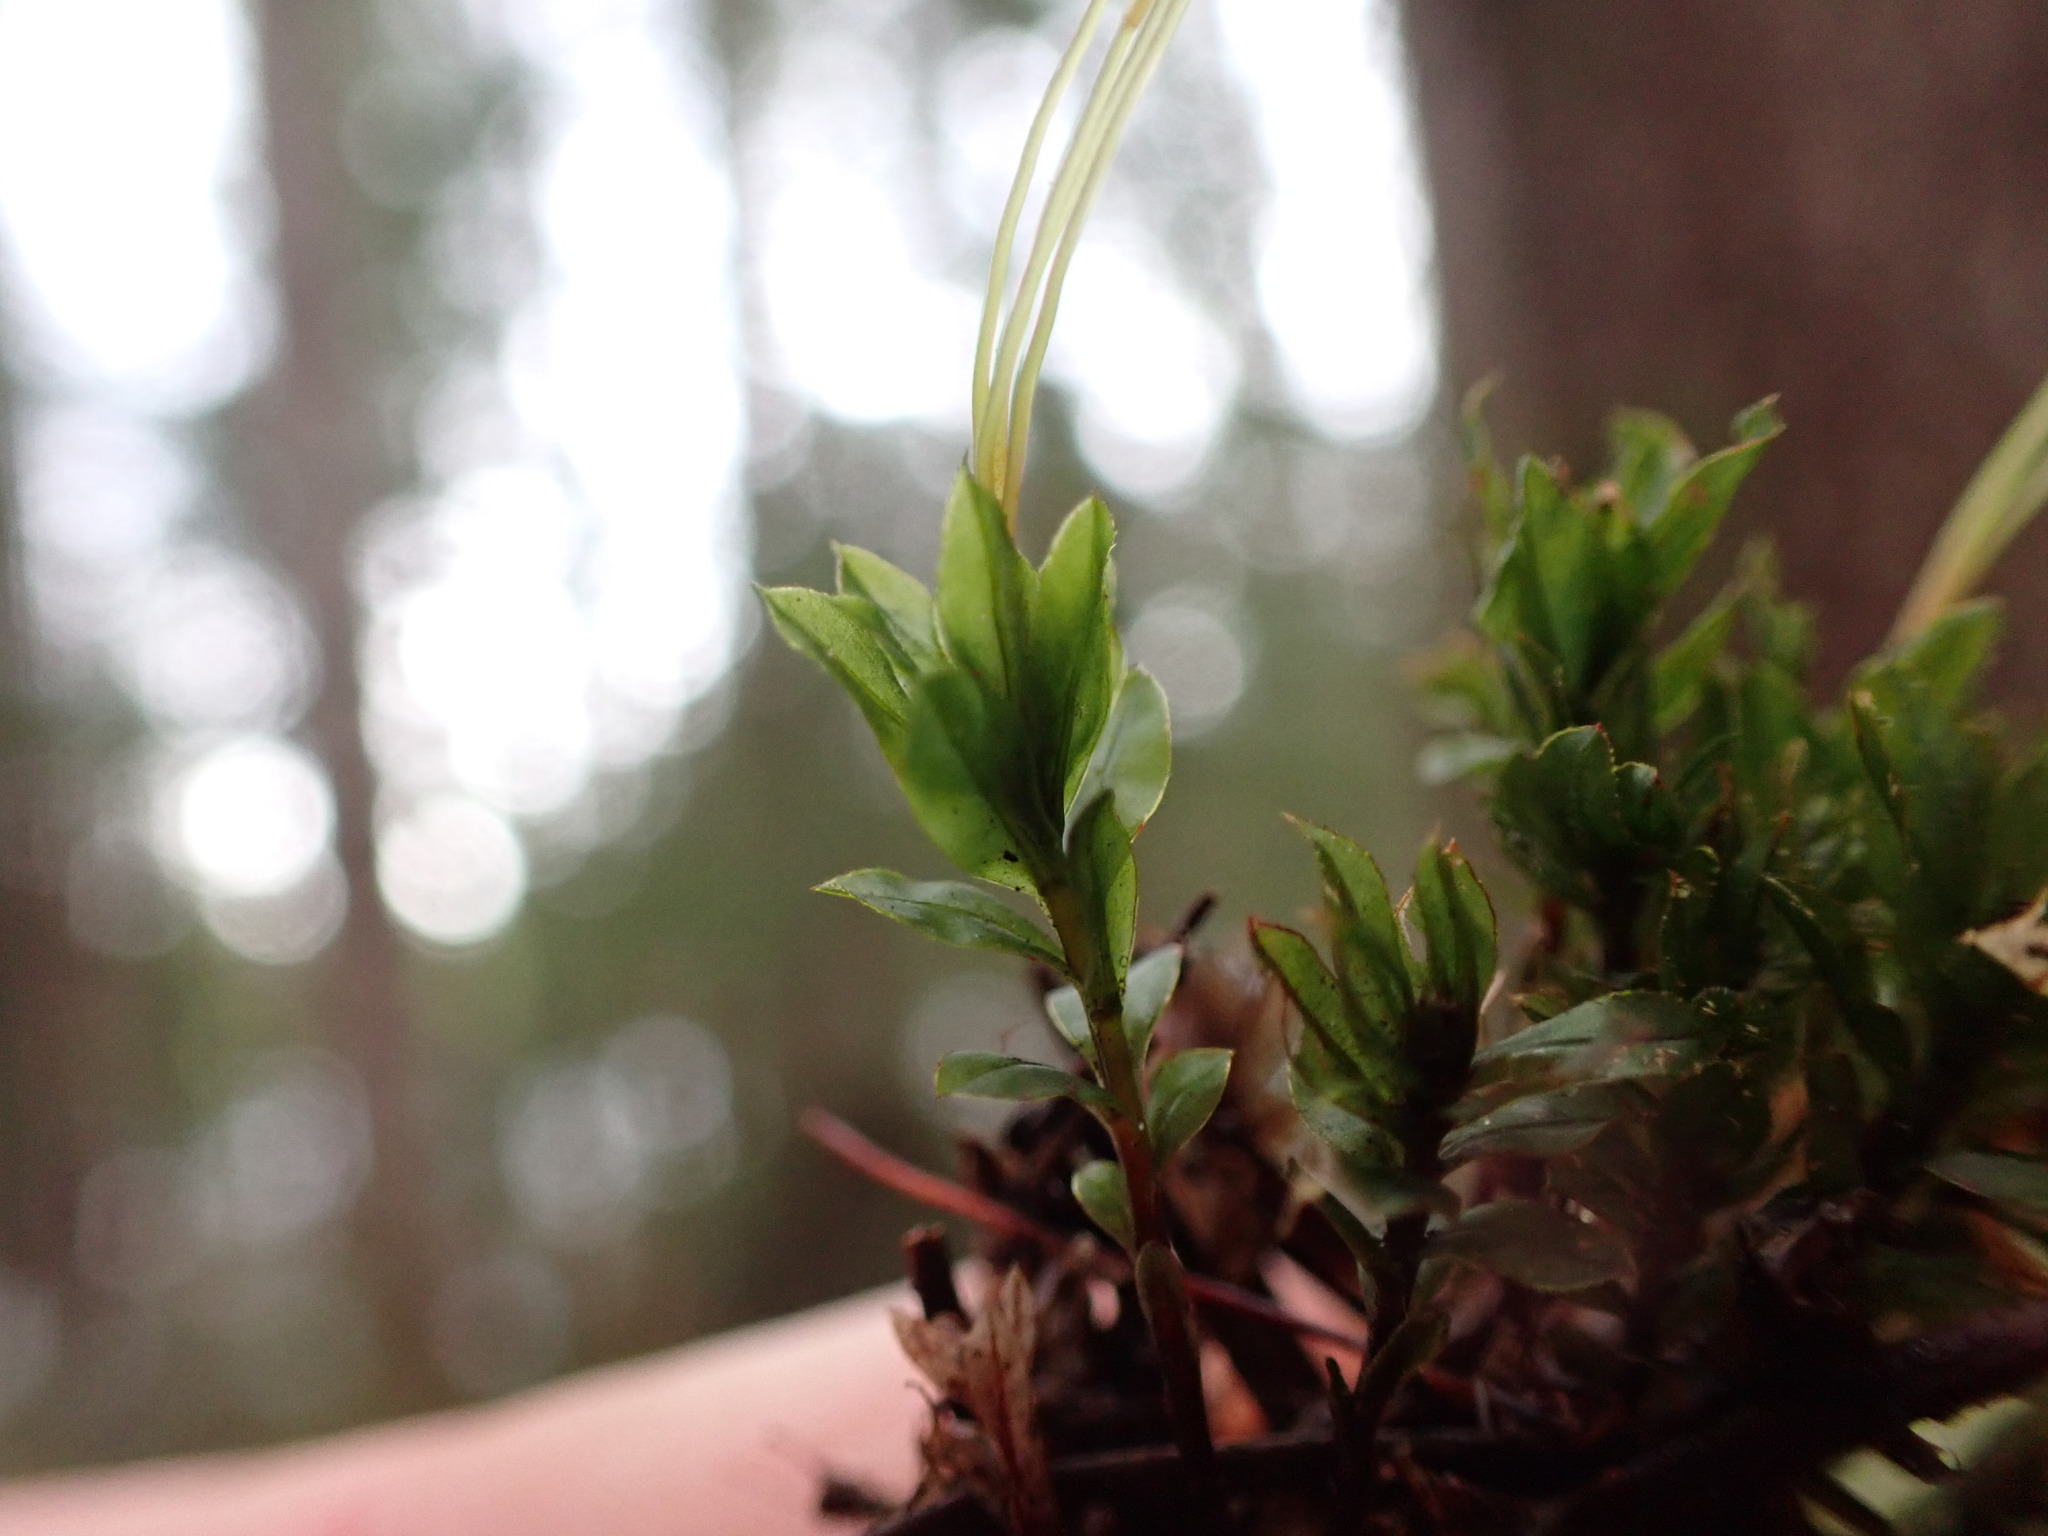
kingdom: Plantae
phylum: Bryophyta
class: Bryopsida
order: Bryales
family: Mniaceae
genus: Mnium
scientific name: Mnium spinulosum
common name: Red-mouthed leafy moss
